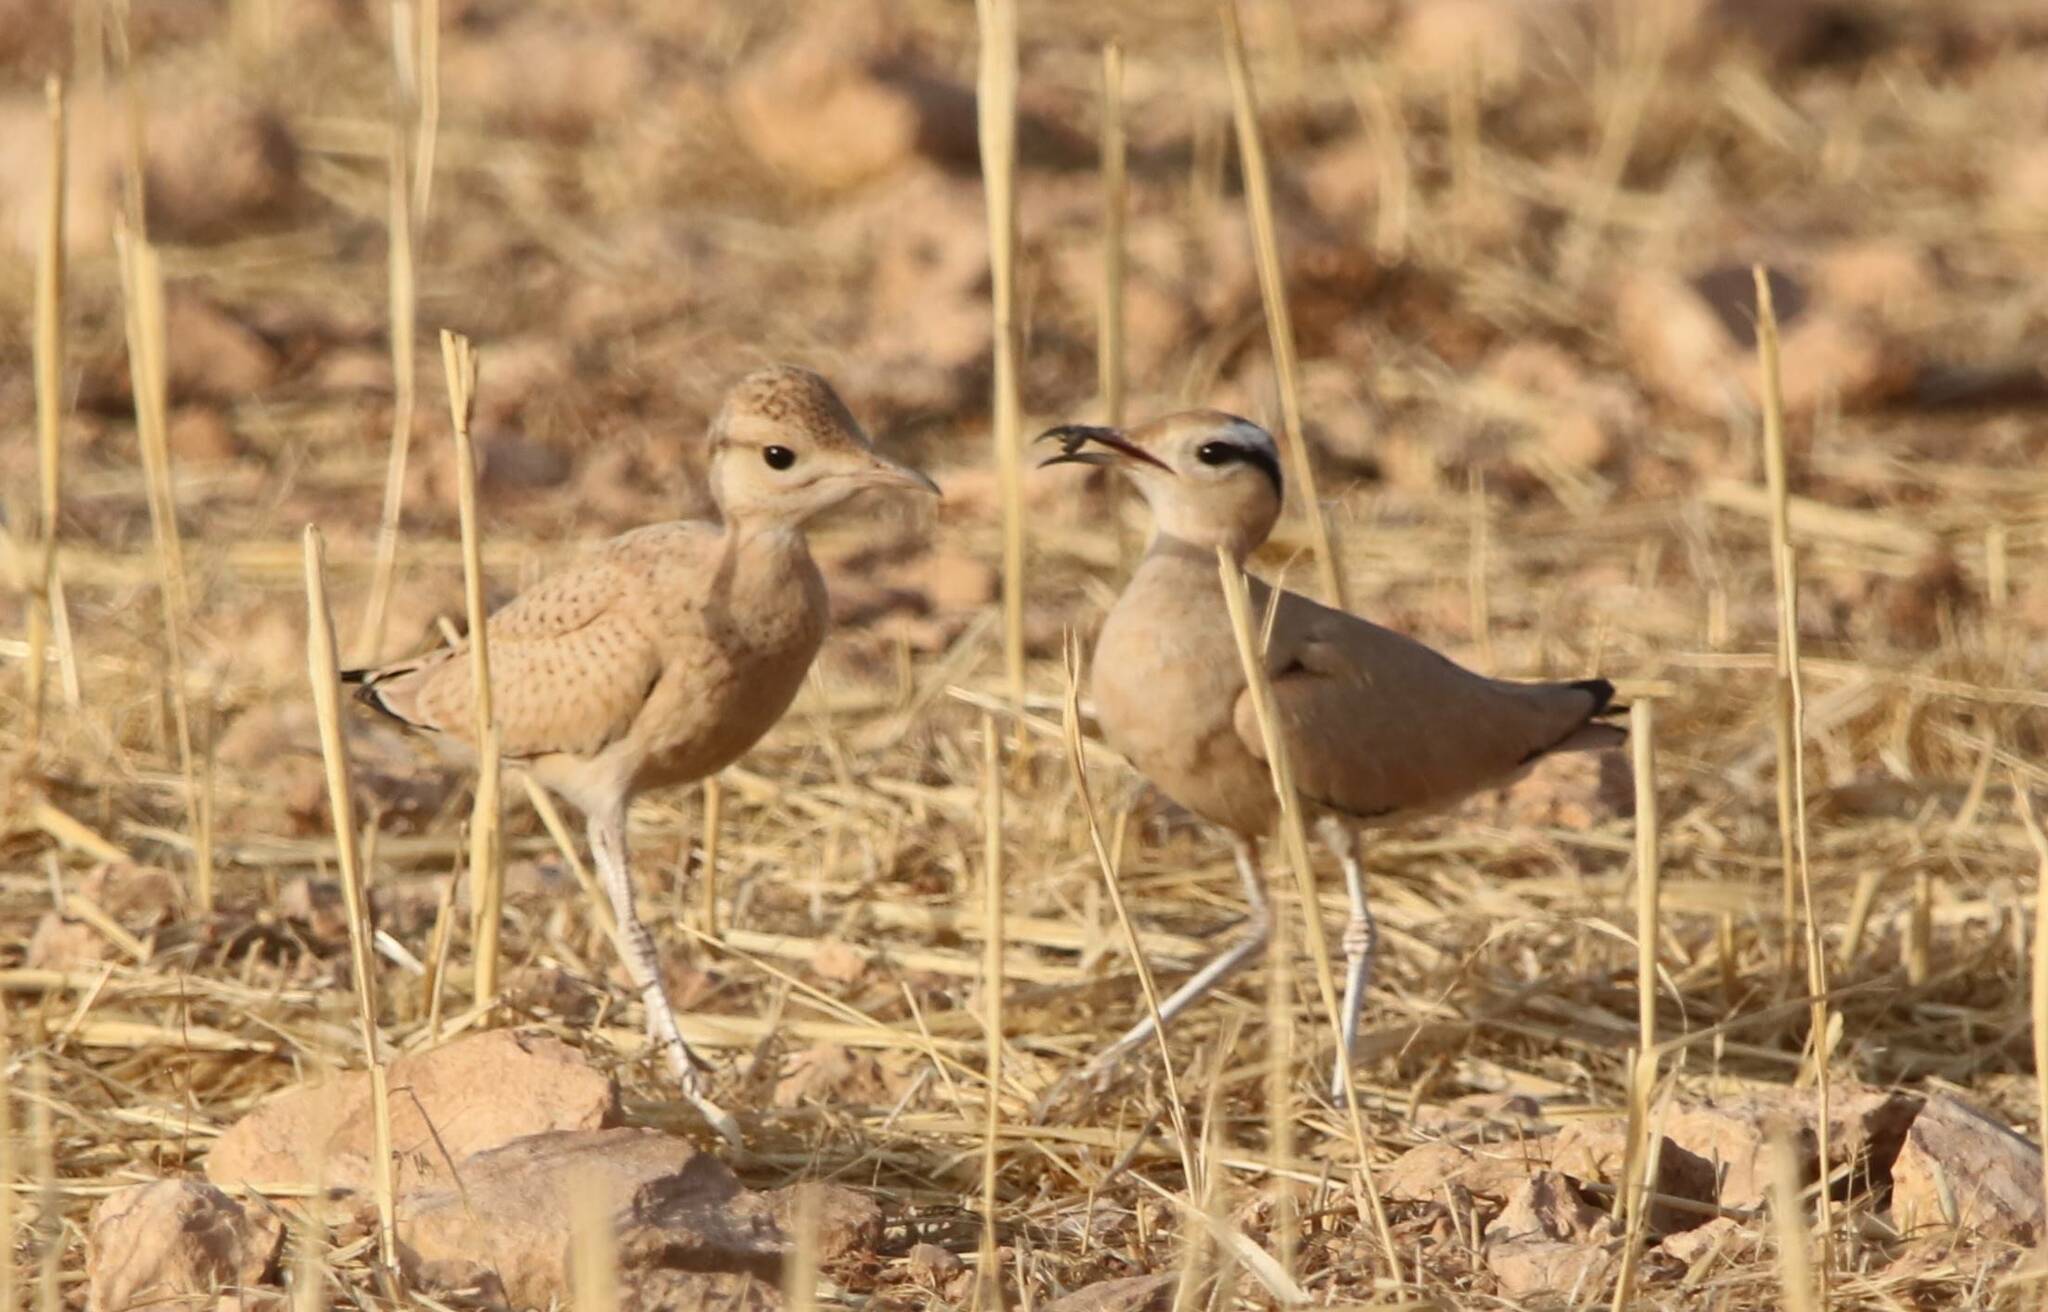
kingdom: Animalia
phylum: Chordata
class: Aves
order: Charadriiformes
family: Glareolidae
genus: Cursorius
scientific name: Cursorius cursor
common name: Cream-colored courser
